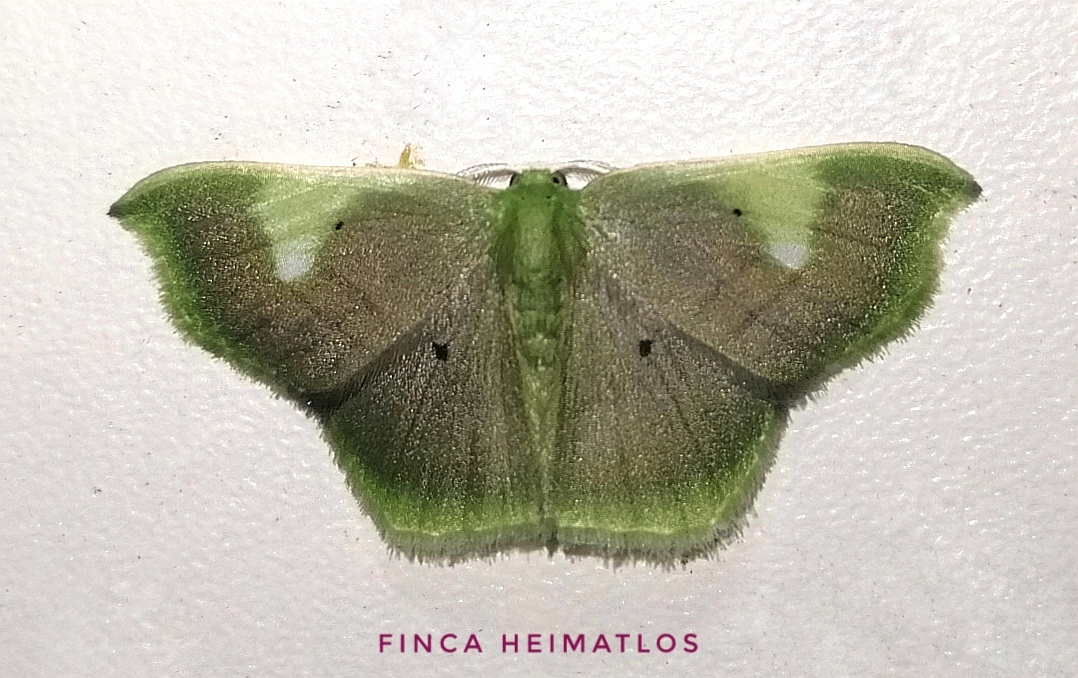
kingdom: Animalia
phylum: Arthropoda
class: Insecta
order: Lepidoptera
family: Geometridae
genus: Lissocentra
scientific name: Lissocentra
